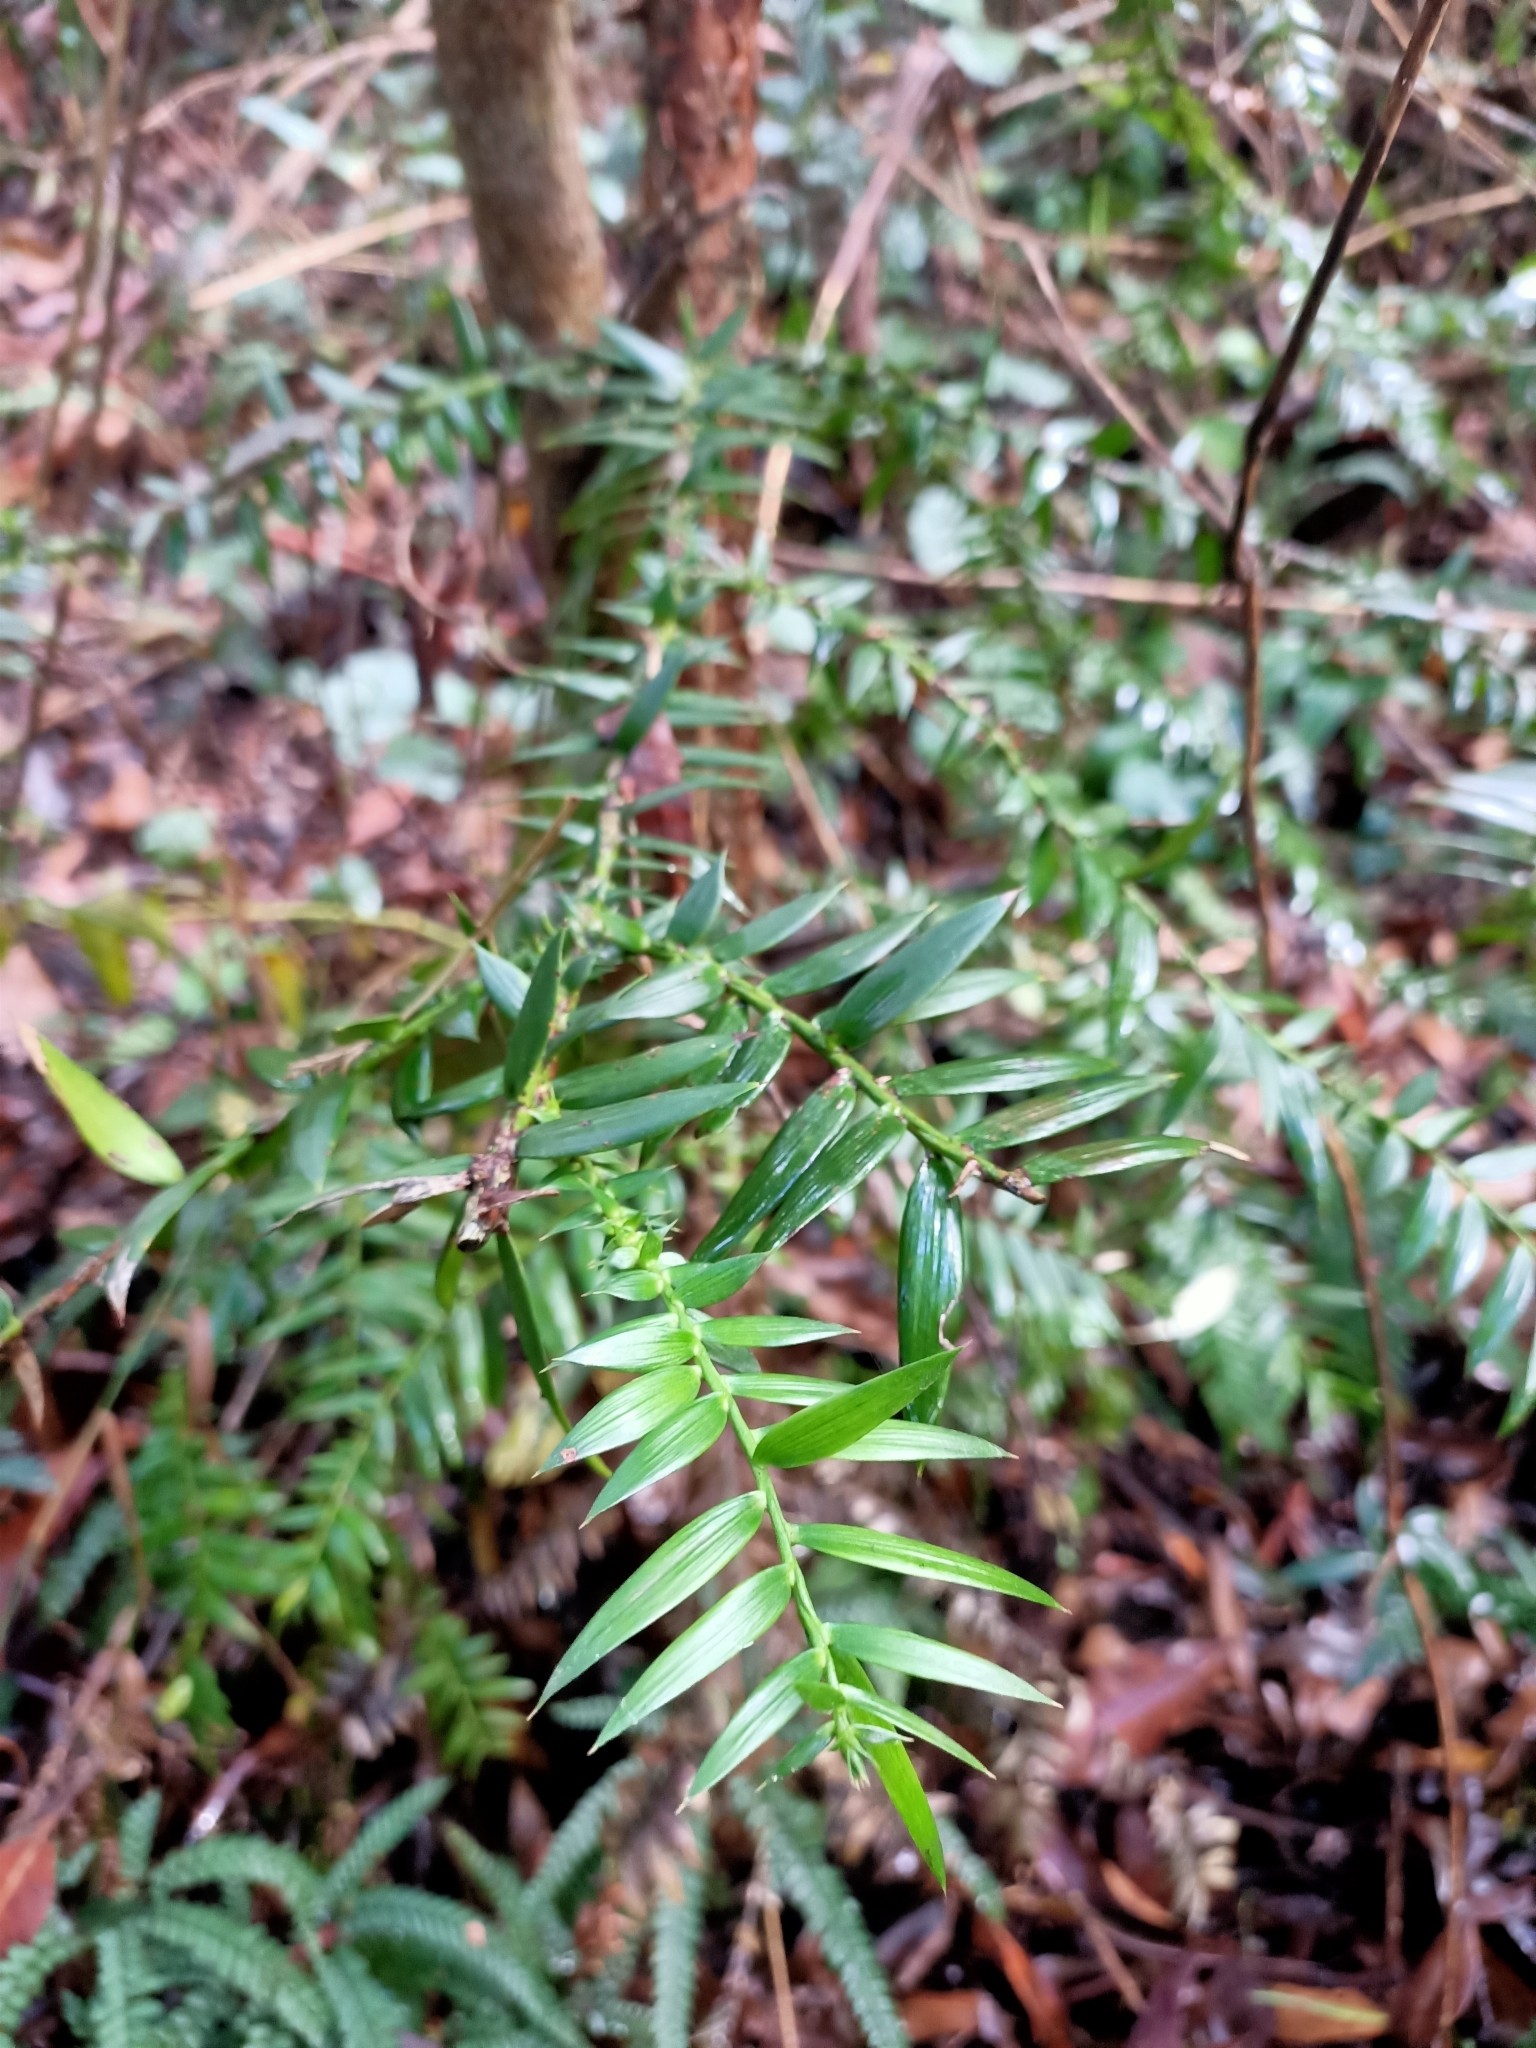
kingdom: Plantae
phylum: Tracheophyta
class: Pinopsida
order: Pinales
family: Araucariaceae
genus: Araucaria
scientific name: Araucaria bidwillii
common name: Moreton-bay-pine
